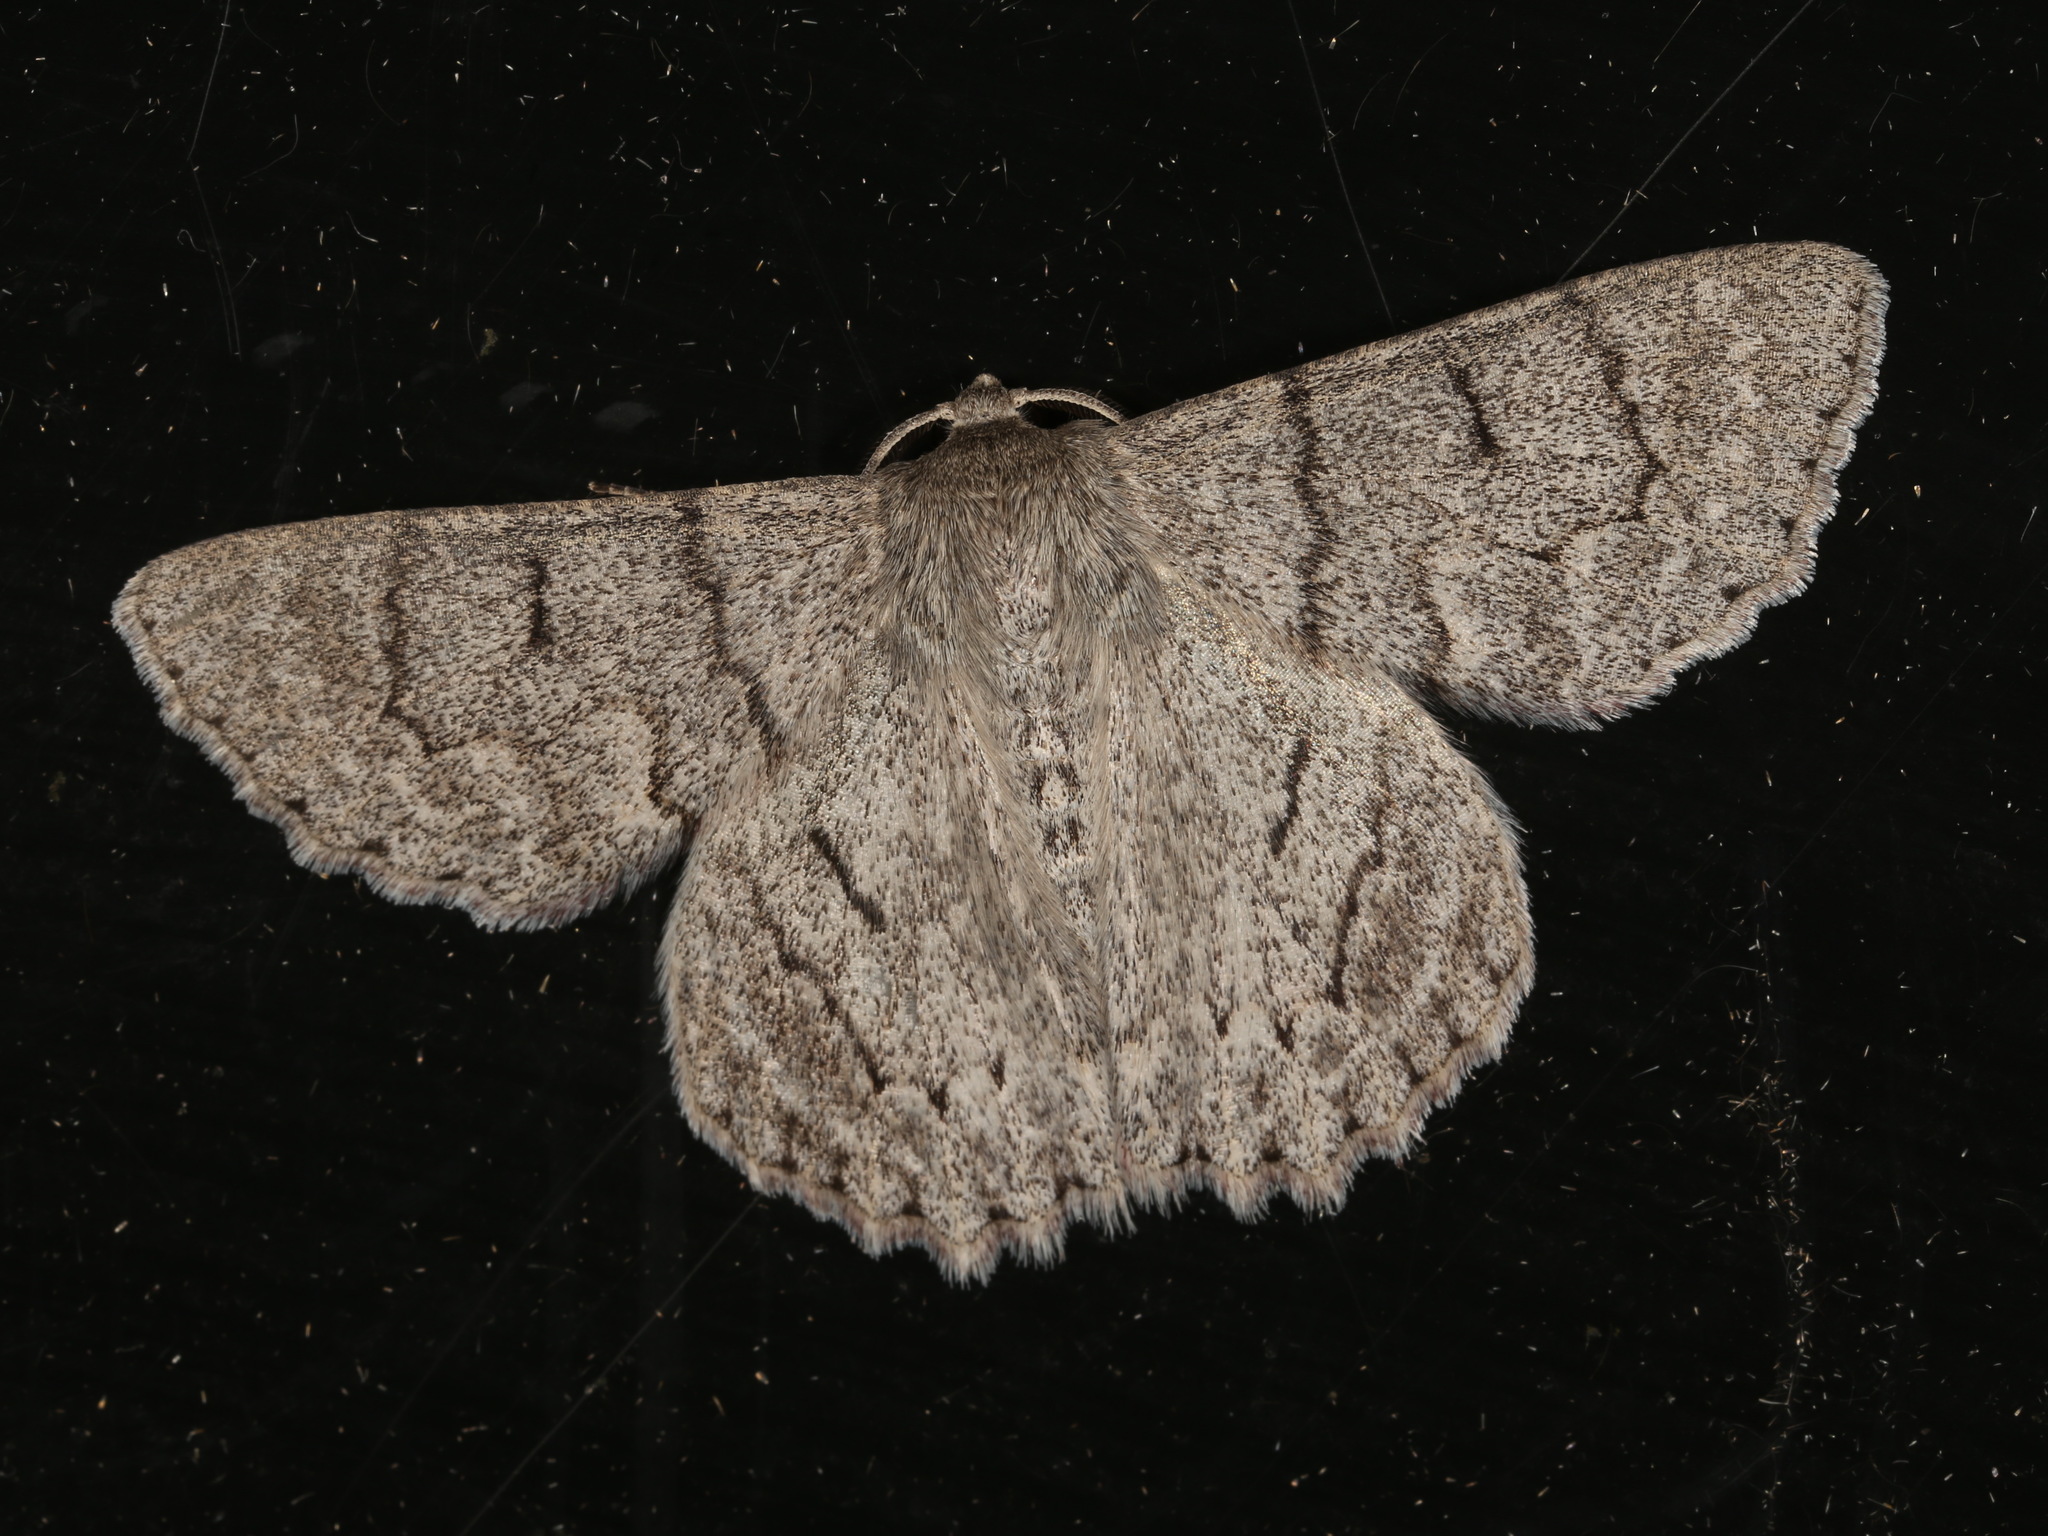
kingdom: Animalia
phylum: Arthropoda
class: Insecta
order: Lepidoptera
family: Geometridae
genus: Crypsiphona
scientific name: Crypsiphona ocultaria
